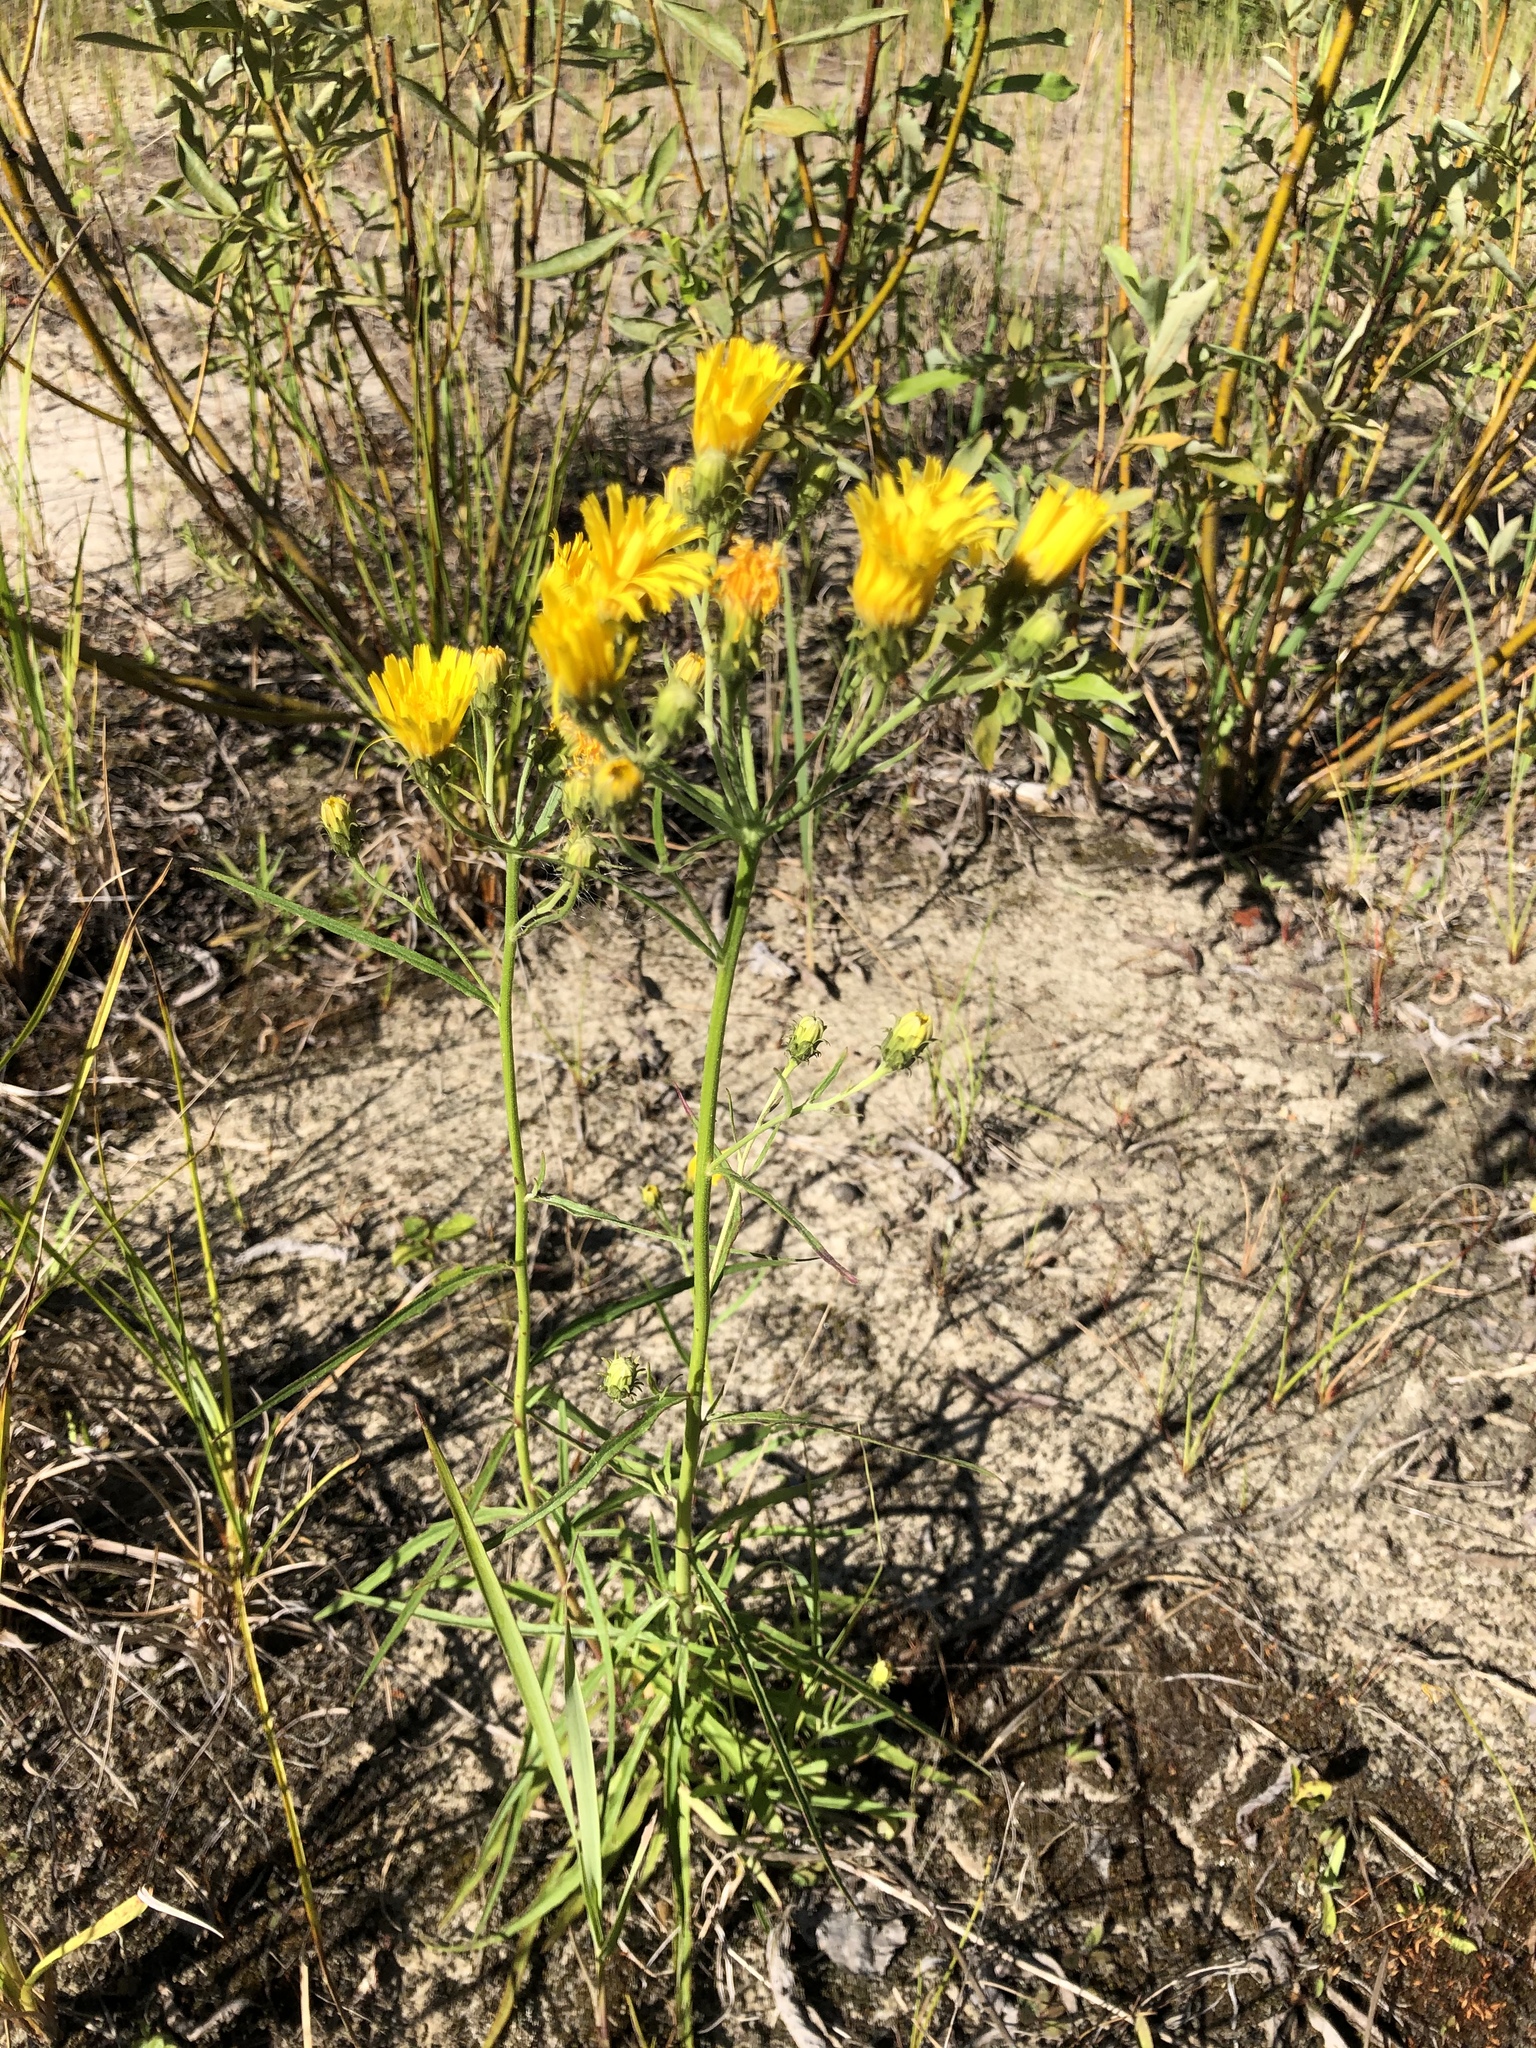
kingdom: Plantae
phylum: Tracheophyta
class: Magnoliopsida
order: Asterales
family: Asteraceae
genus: Hieracium
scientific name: Hieracium umbellatum
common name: Northern hawkweed
